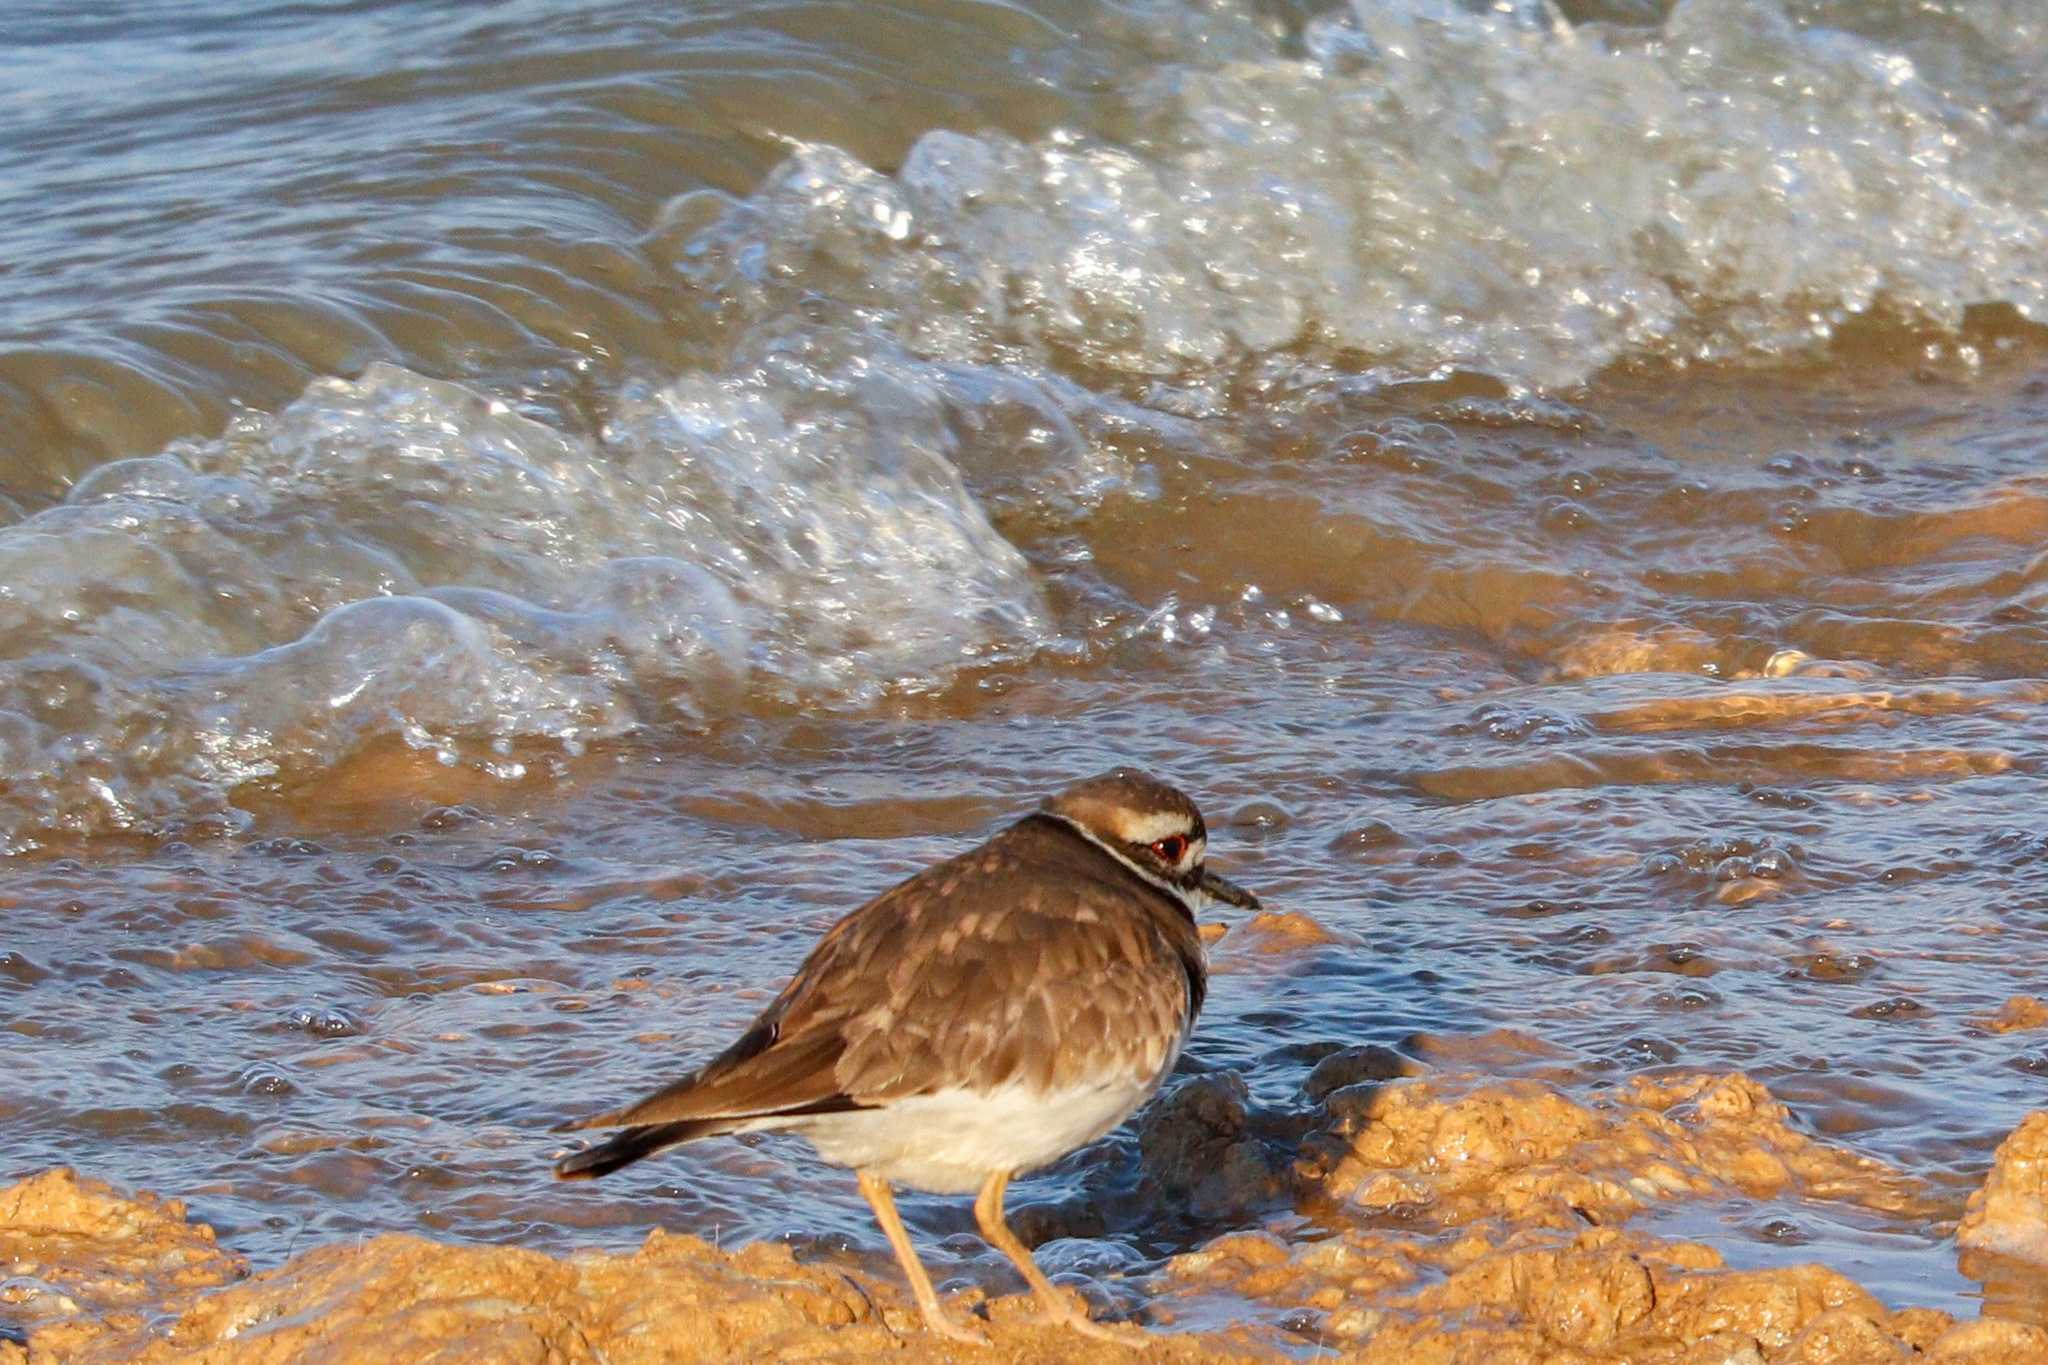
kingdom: Animalia
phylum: Chordata
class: Aves
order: Charadriiformes
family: Charadriidae
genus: Charadrius
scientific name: Charadrius vociferus
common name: Killdeer
